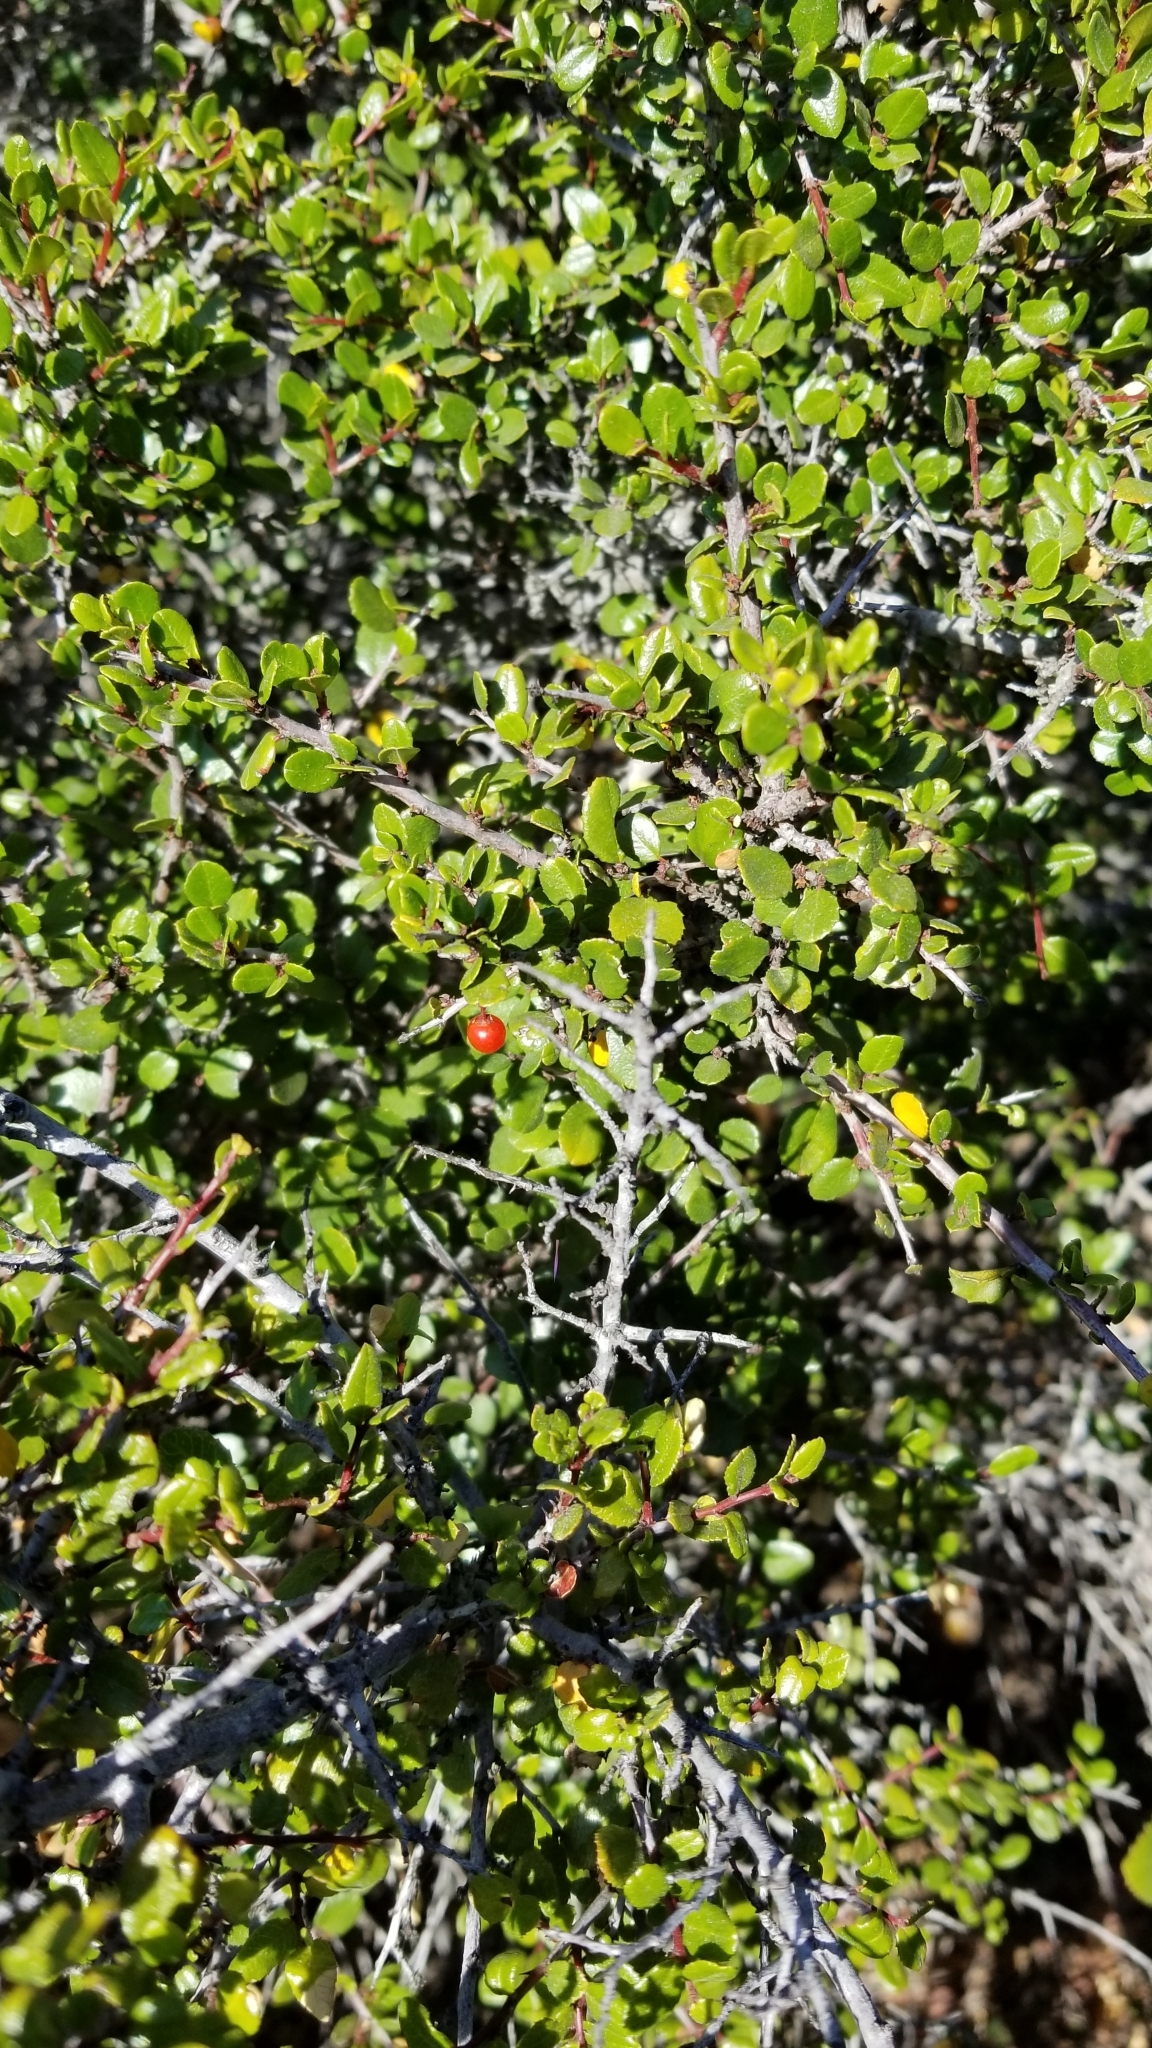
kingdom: Plantae
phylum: Tracheophyta
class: Magnoliopsida
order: Rosales
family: Rhamnaceae
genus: Endotropis
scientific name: Endotropis crocea
